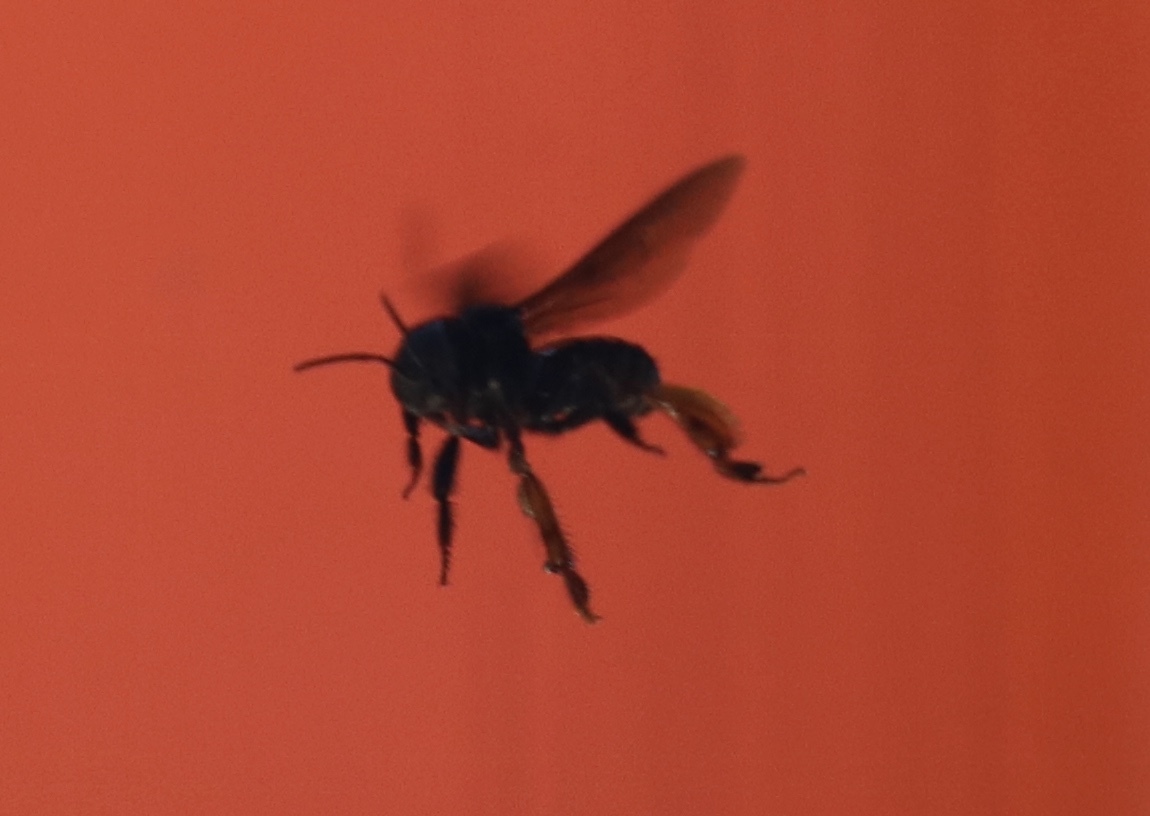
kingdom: Animalia
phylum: Arthropoda
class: Insecta
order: Hymenoptera
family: Apidae
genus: Trigona
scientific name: Trigona spinipes
